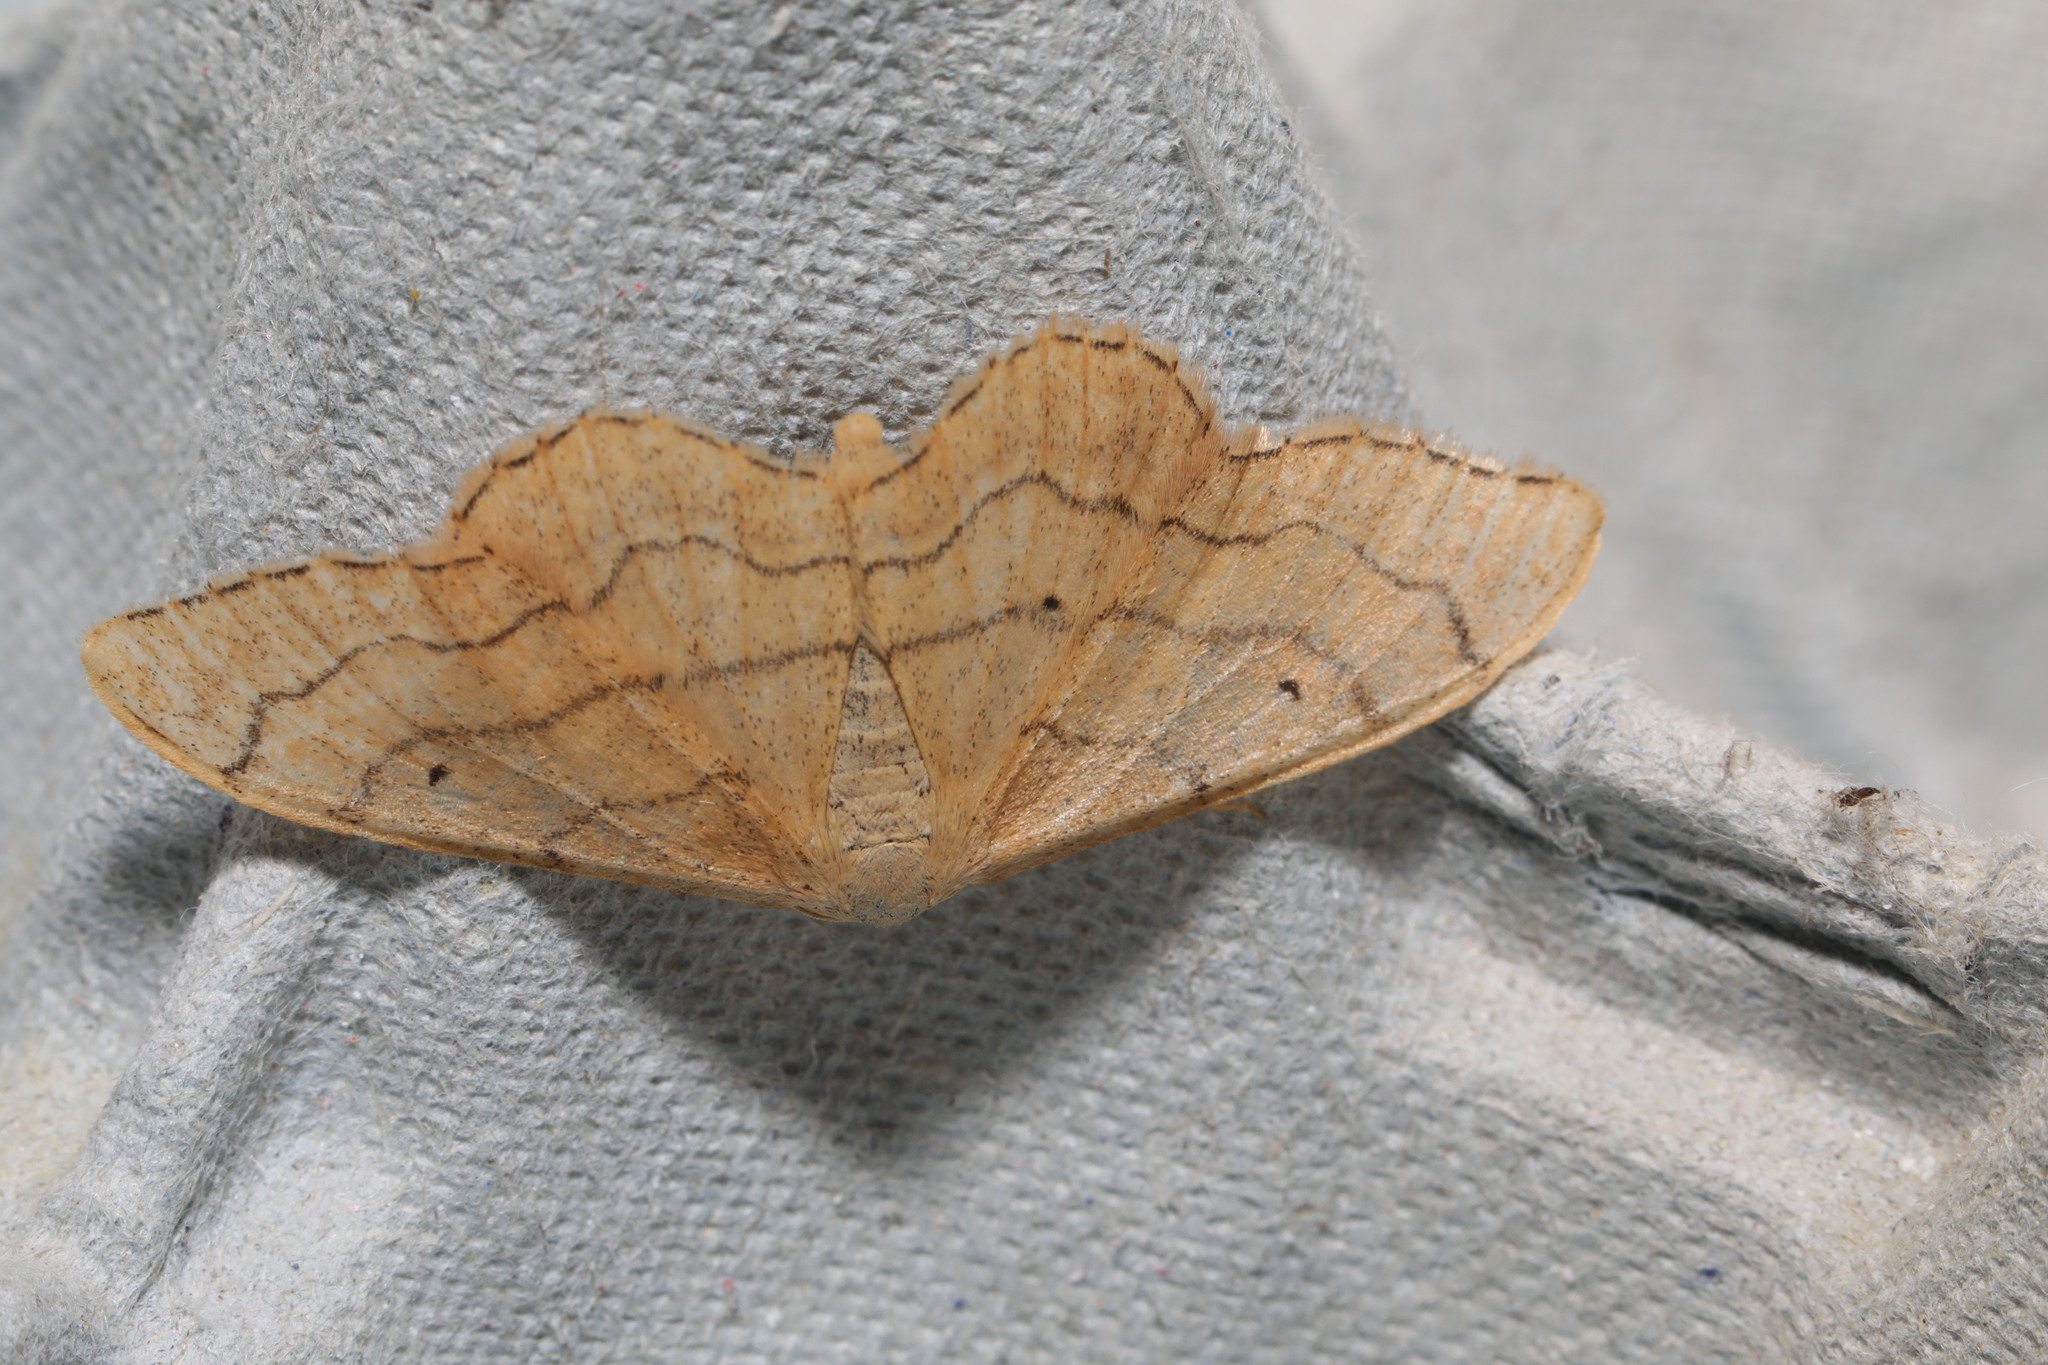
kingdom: Animalia
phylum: Arthropoda
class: Insecta
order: Lepidoptera
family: Geometridae
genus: Idaea
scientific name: Idaea aversata
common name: Riband wave
